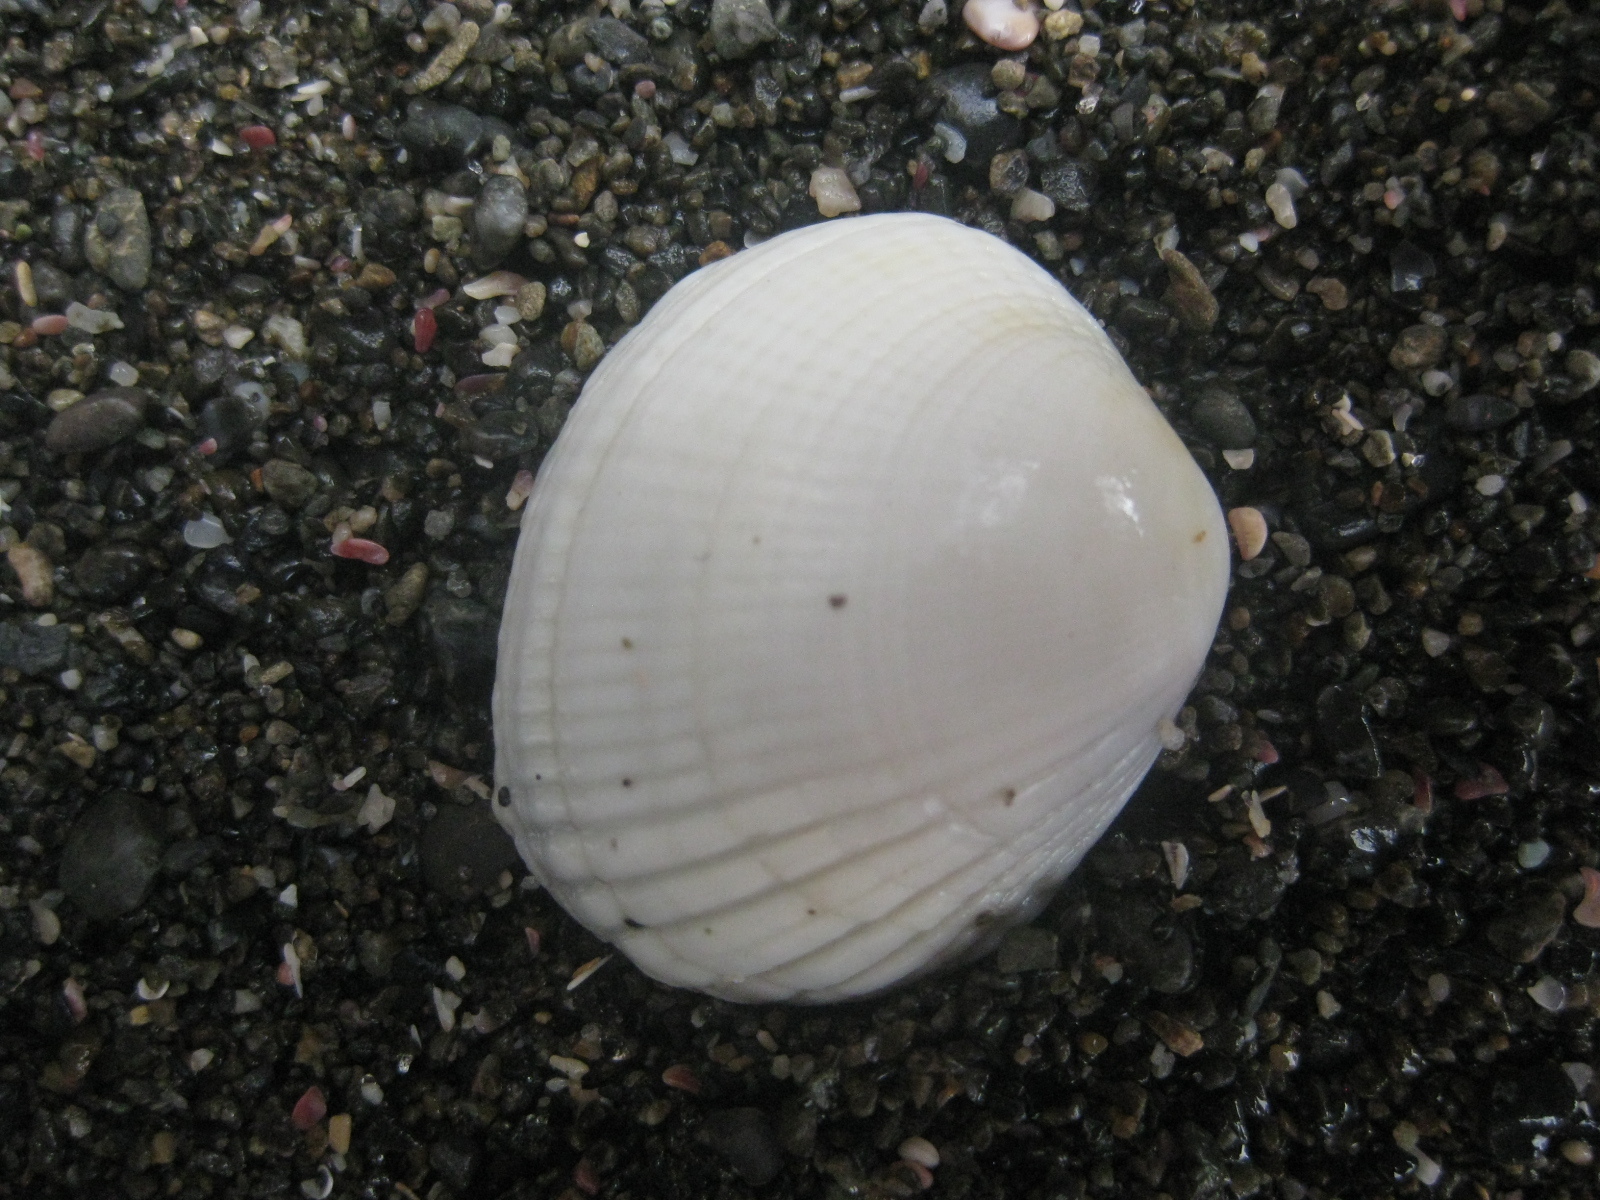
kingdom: Animalia
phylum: Mollusca
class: Bivalvia
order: Venerida
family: Veneridae
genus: Leukoma
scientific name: Leukoma crassicosta
